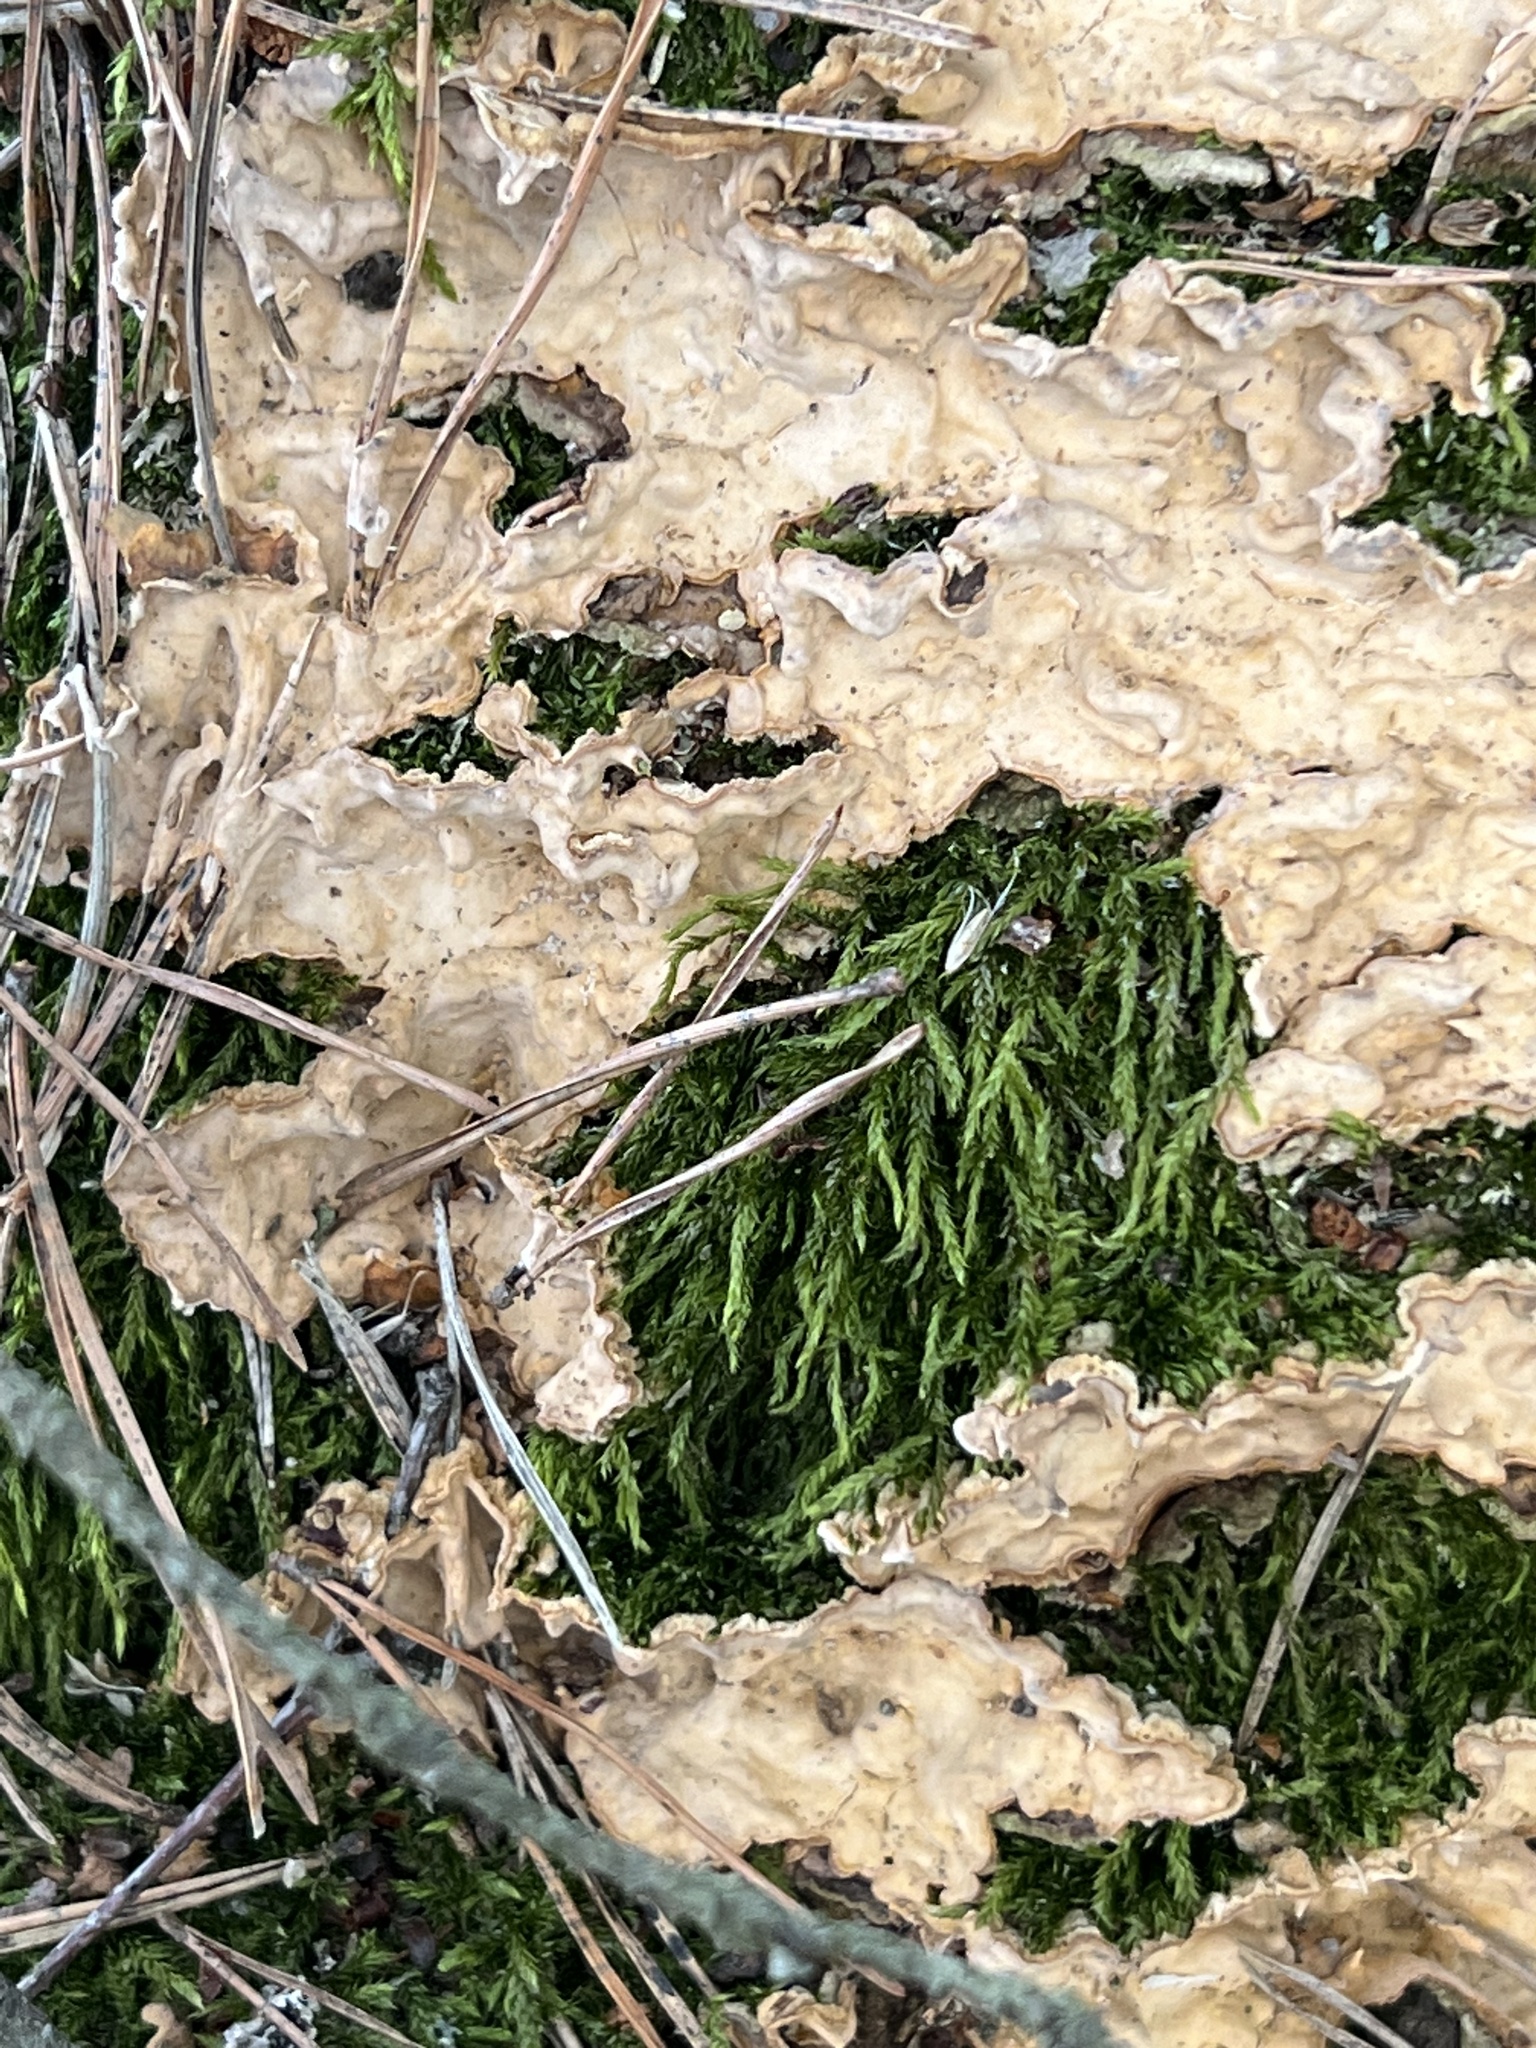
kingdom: Fungi
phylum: Basidiomycota
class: Agaricomycetes
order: Russulales
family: Stereaceae
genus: Stereum
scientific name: Stereum rugosum
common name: Bleeding broadleaf crust
